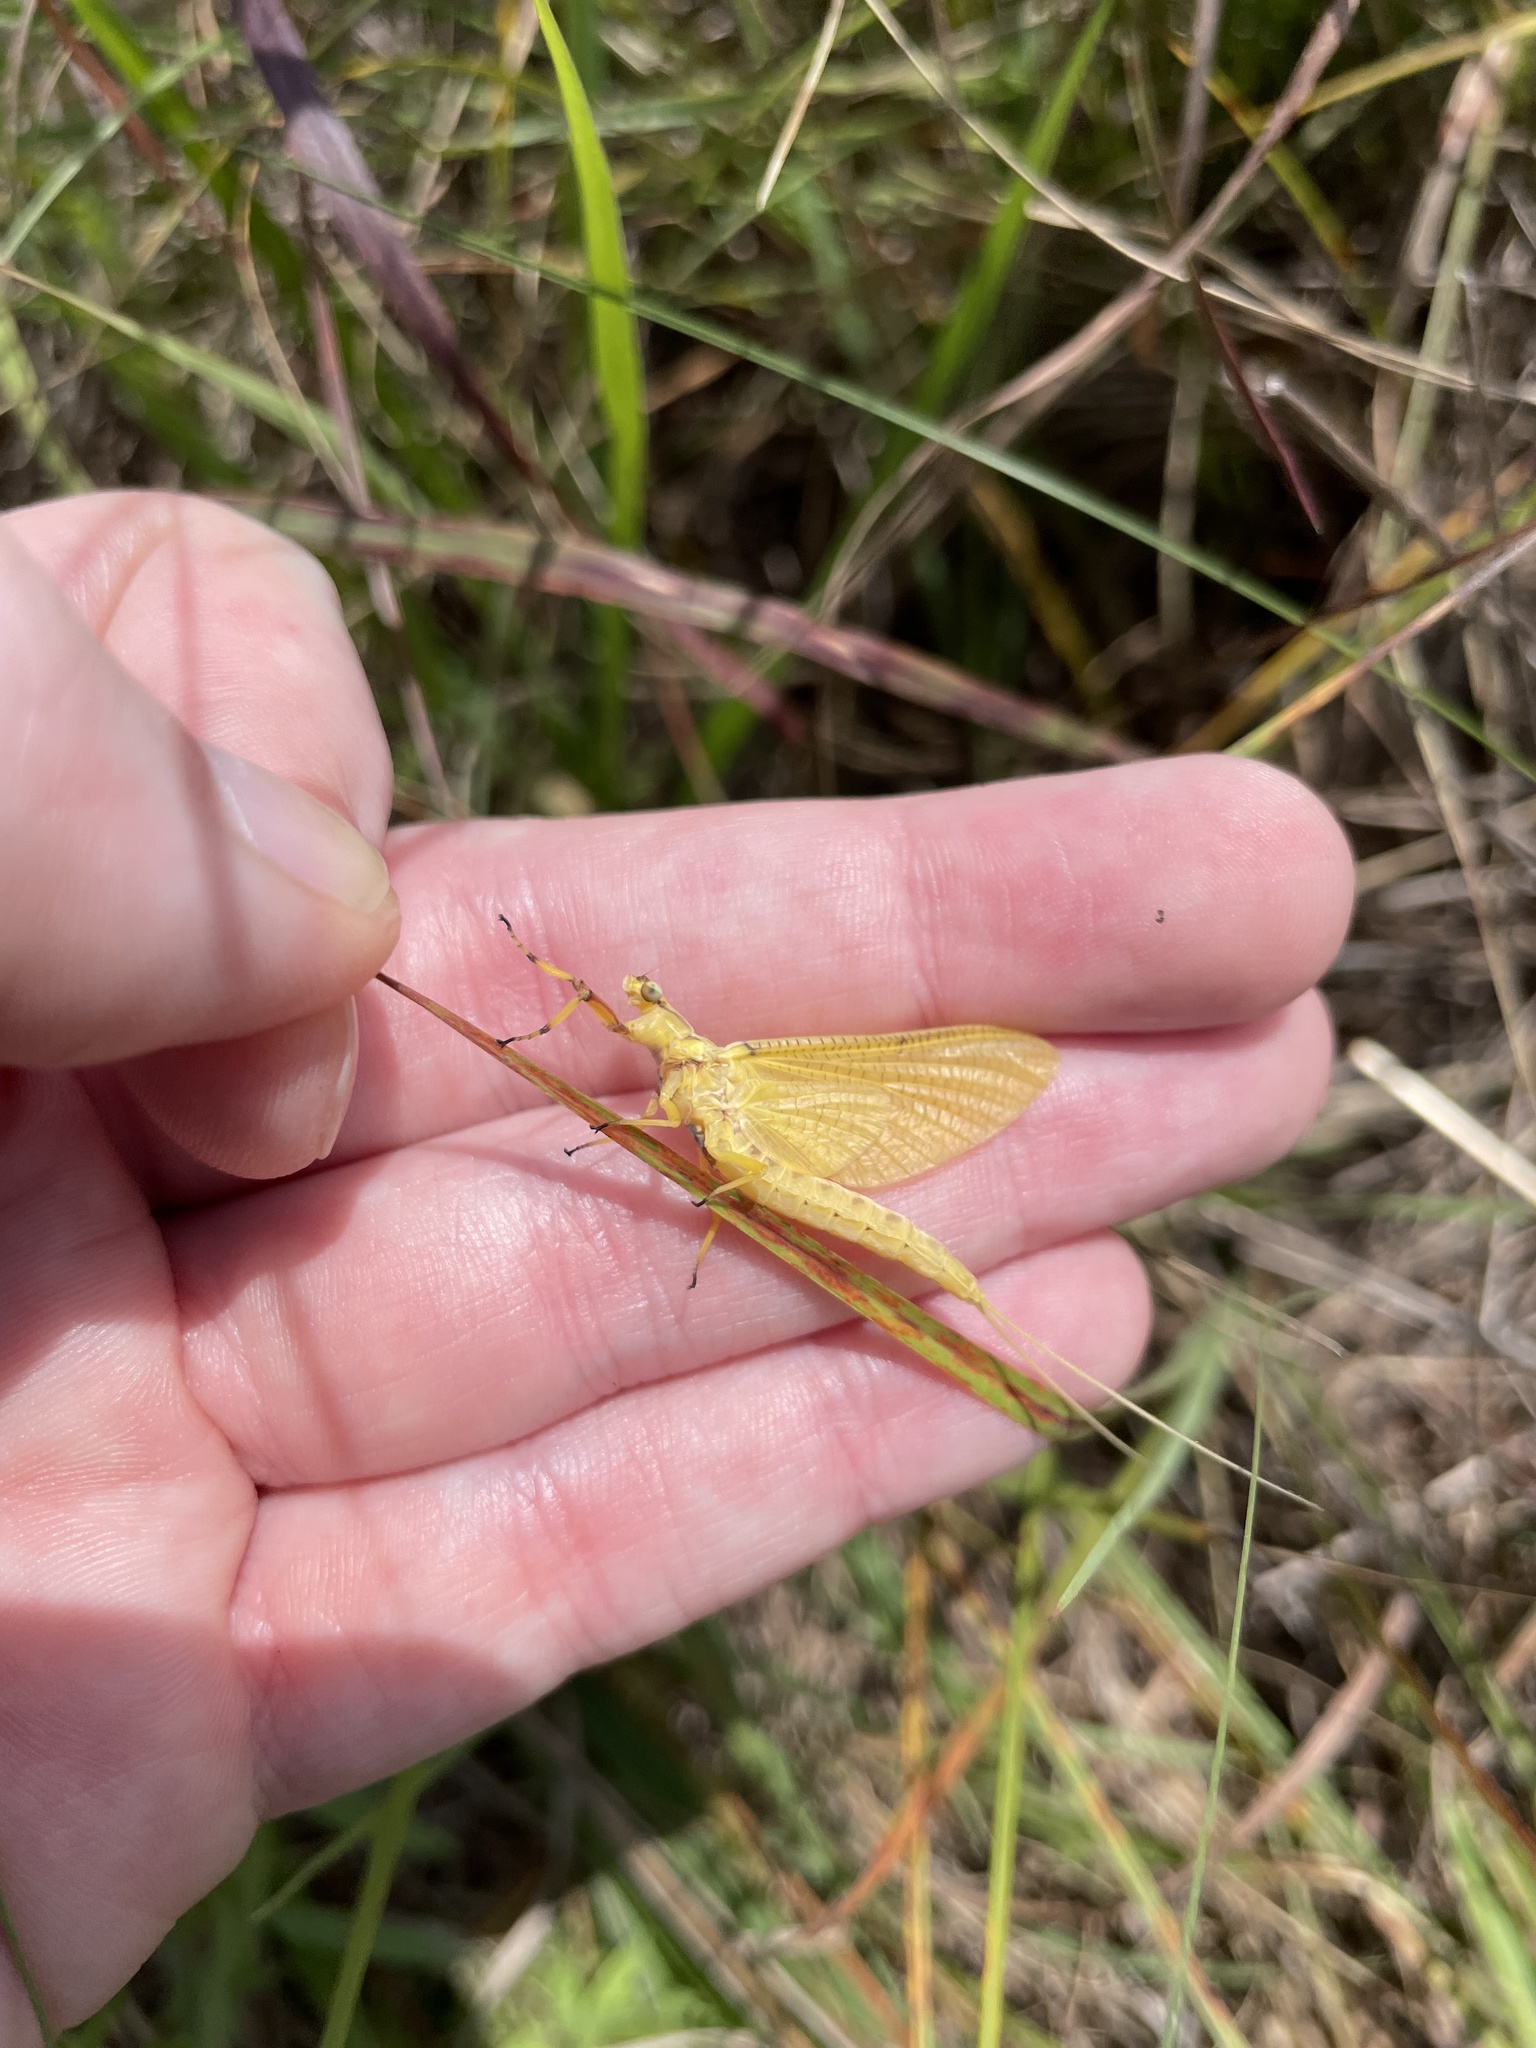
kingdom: Animalia
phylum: Arthropoda
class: Insecta
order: Ephemeroptera
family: Ephemeridae
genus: Hexagenia
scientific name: Hexagenia limbata
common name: Giant mayfly
